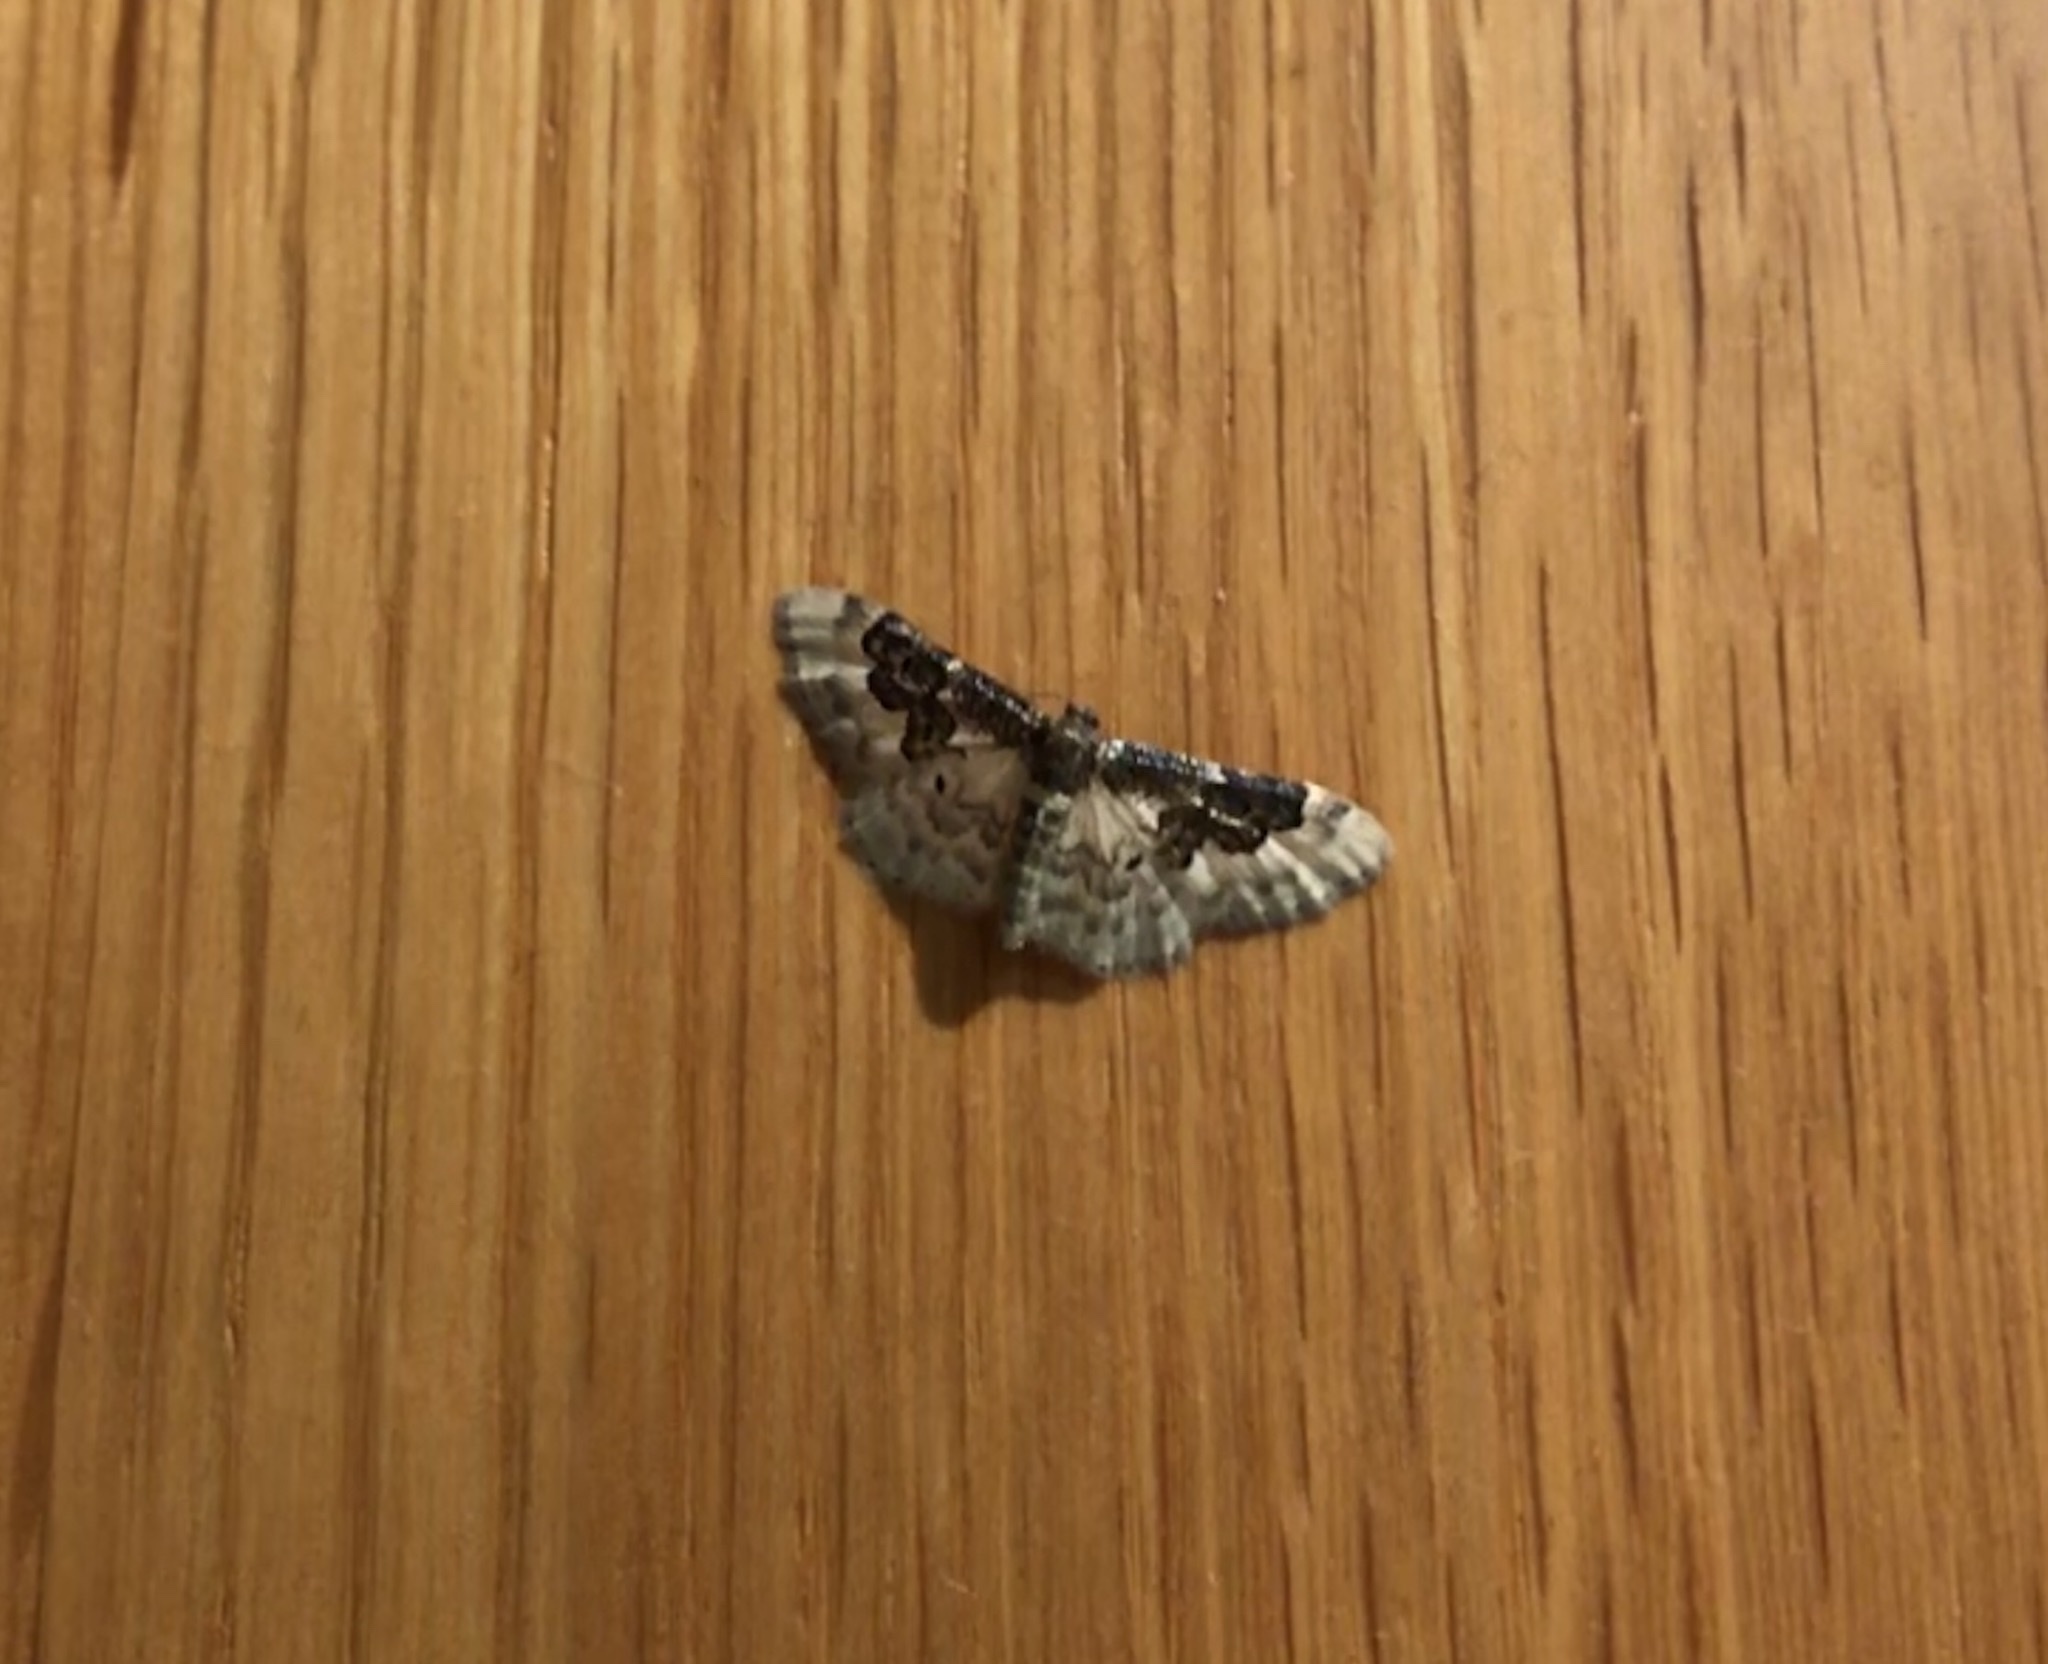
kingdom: Animalia
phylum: Arthropoda
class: Insecta
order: Lepidoptera
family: Geometridae
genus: Idaea
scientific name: Idaea rusticata
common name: Least carpet
